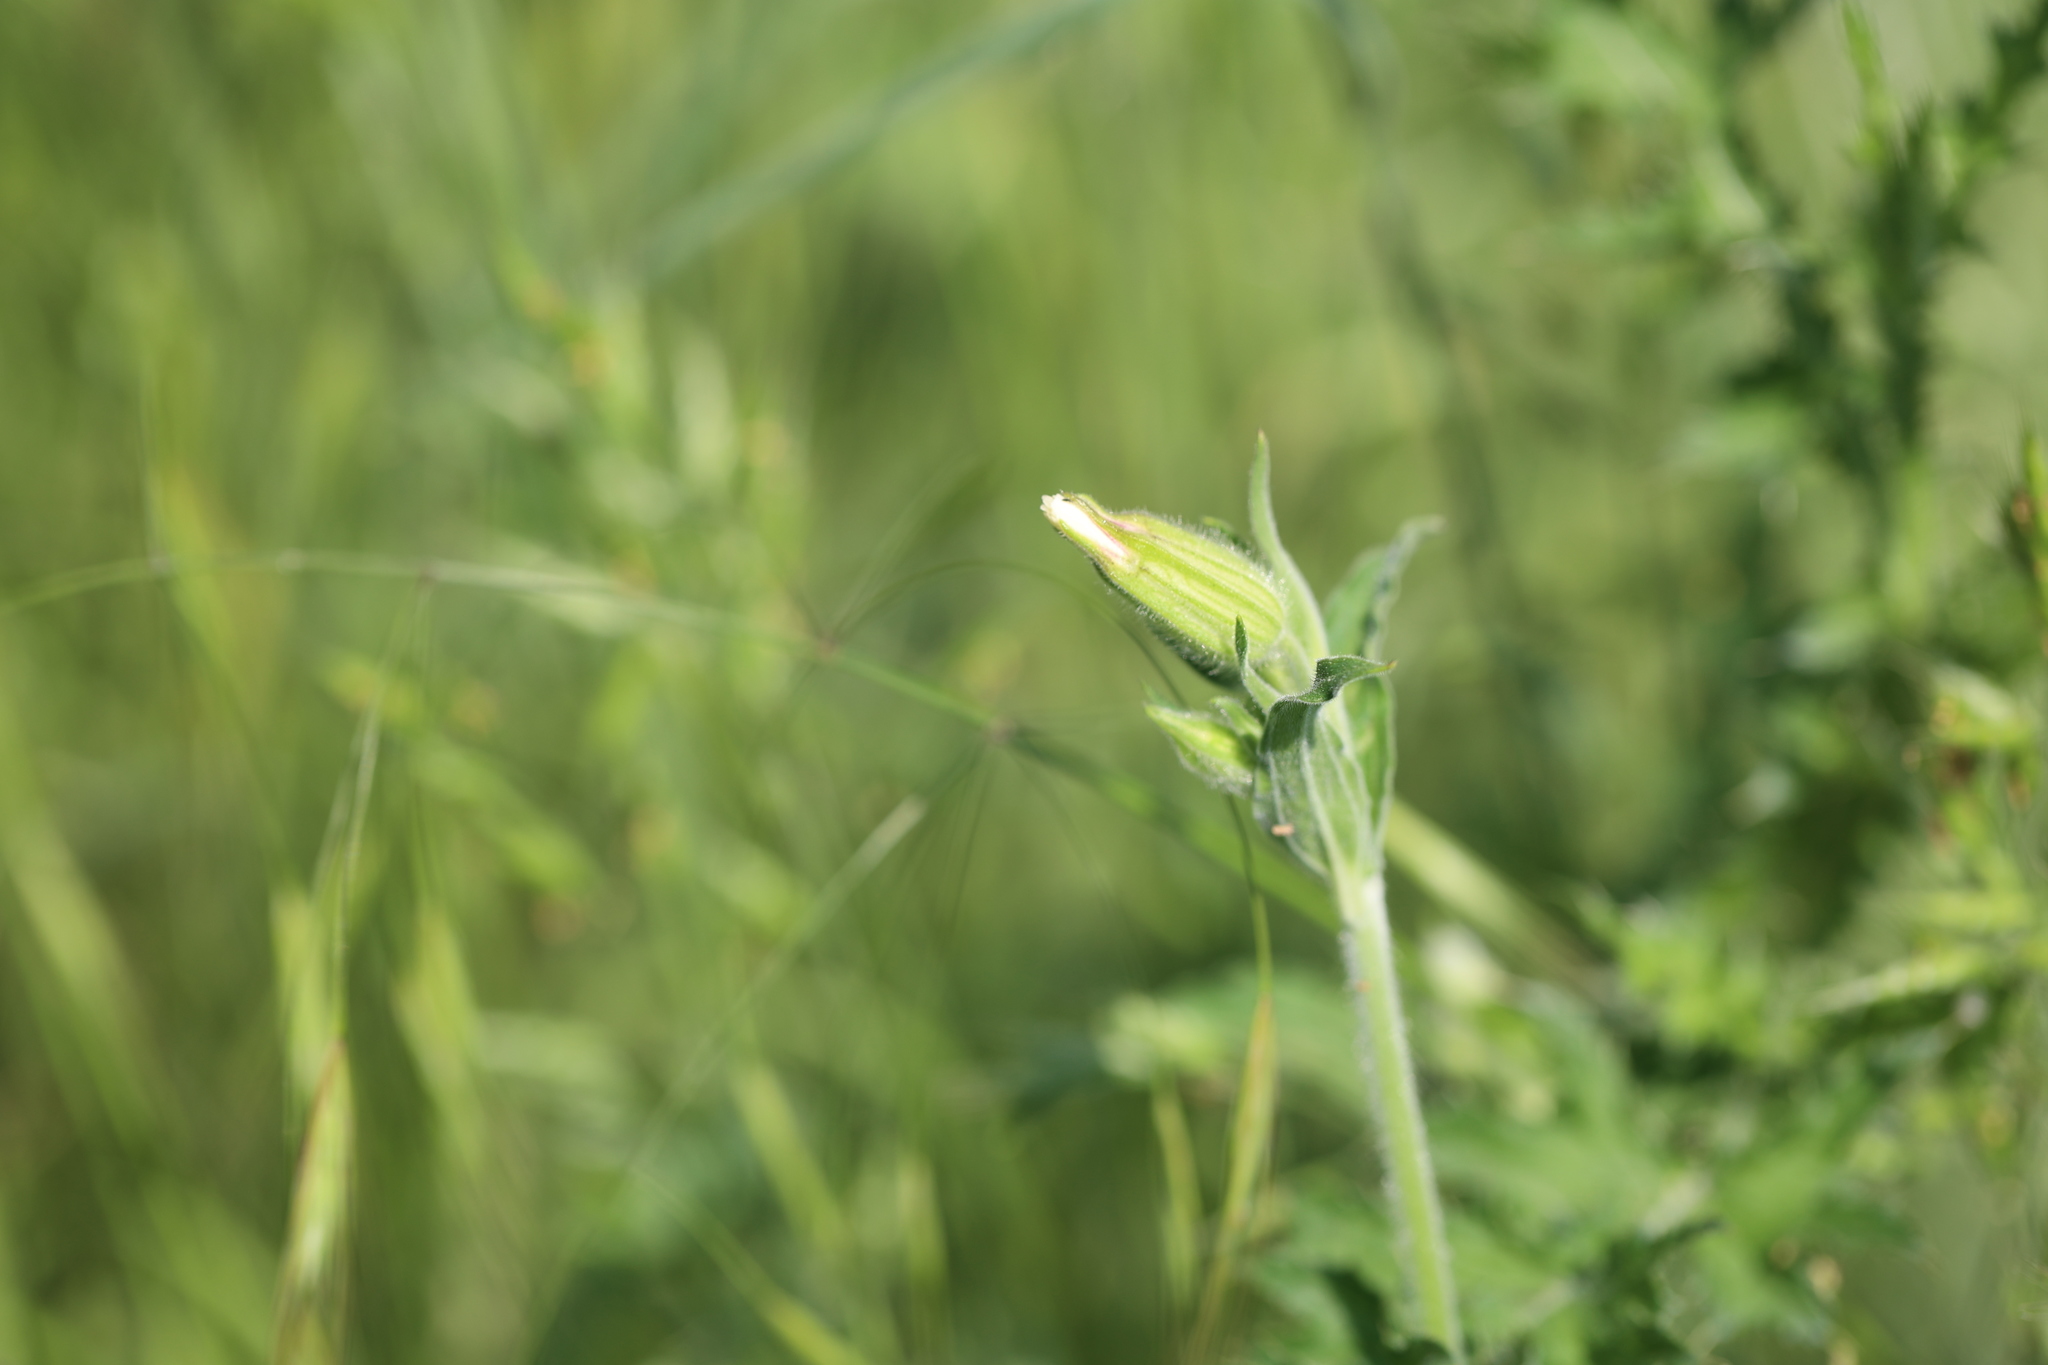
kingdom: Plantae
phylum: Tracheophyta
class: Magnoliopsida
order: Caryophyllales
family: Caryophyllaceae
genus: Silene
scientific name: Silene latifolia
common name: White campion
